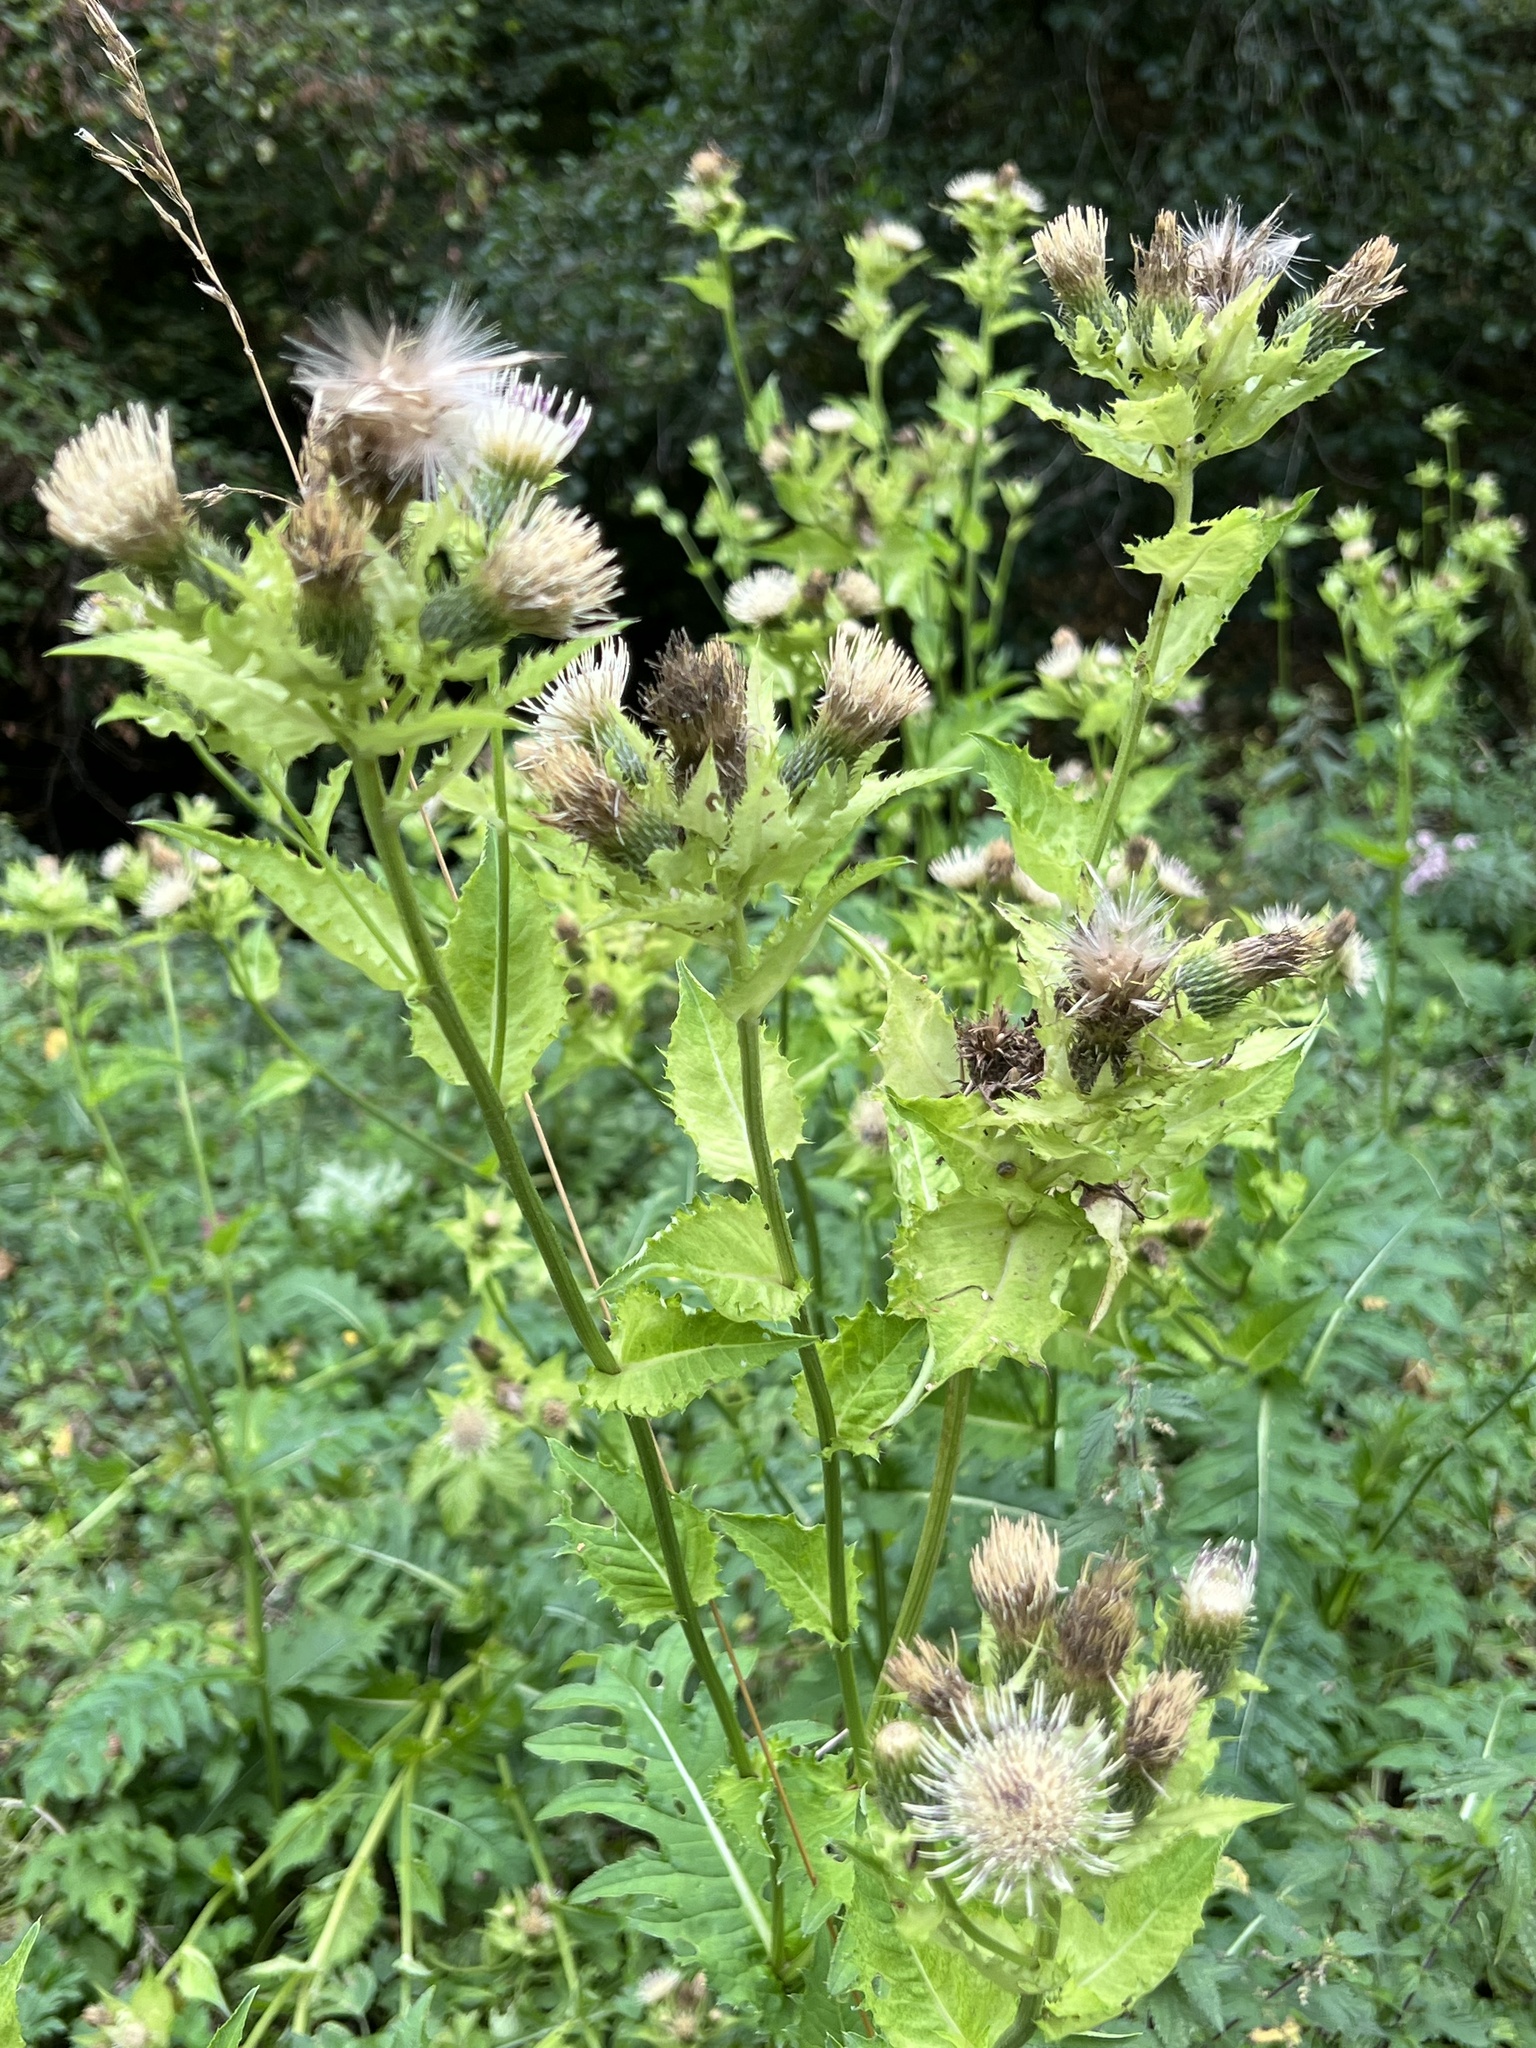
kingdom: Plantae
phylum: Tracheophyta
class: Magnoliopsida
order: Asterales
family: Asteraceae
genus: Cirsium
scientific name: Cirsium oleraceum
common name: Cabbage thistle
